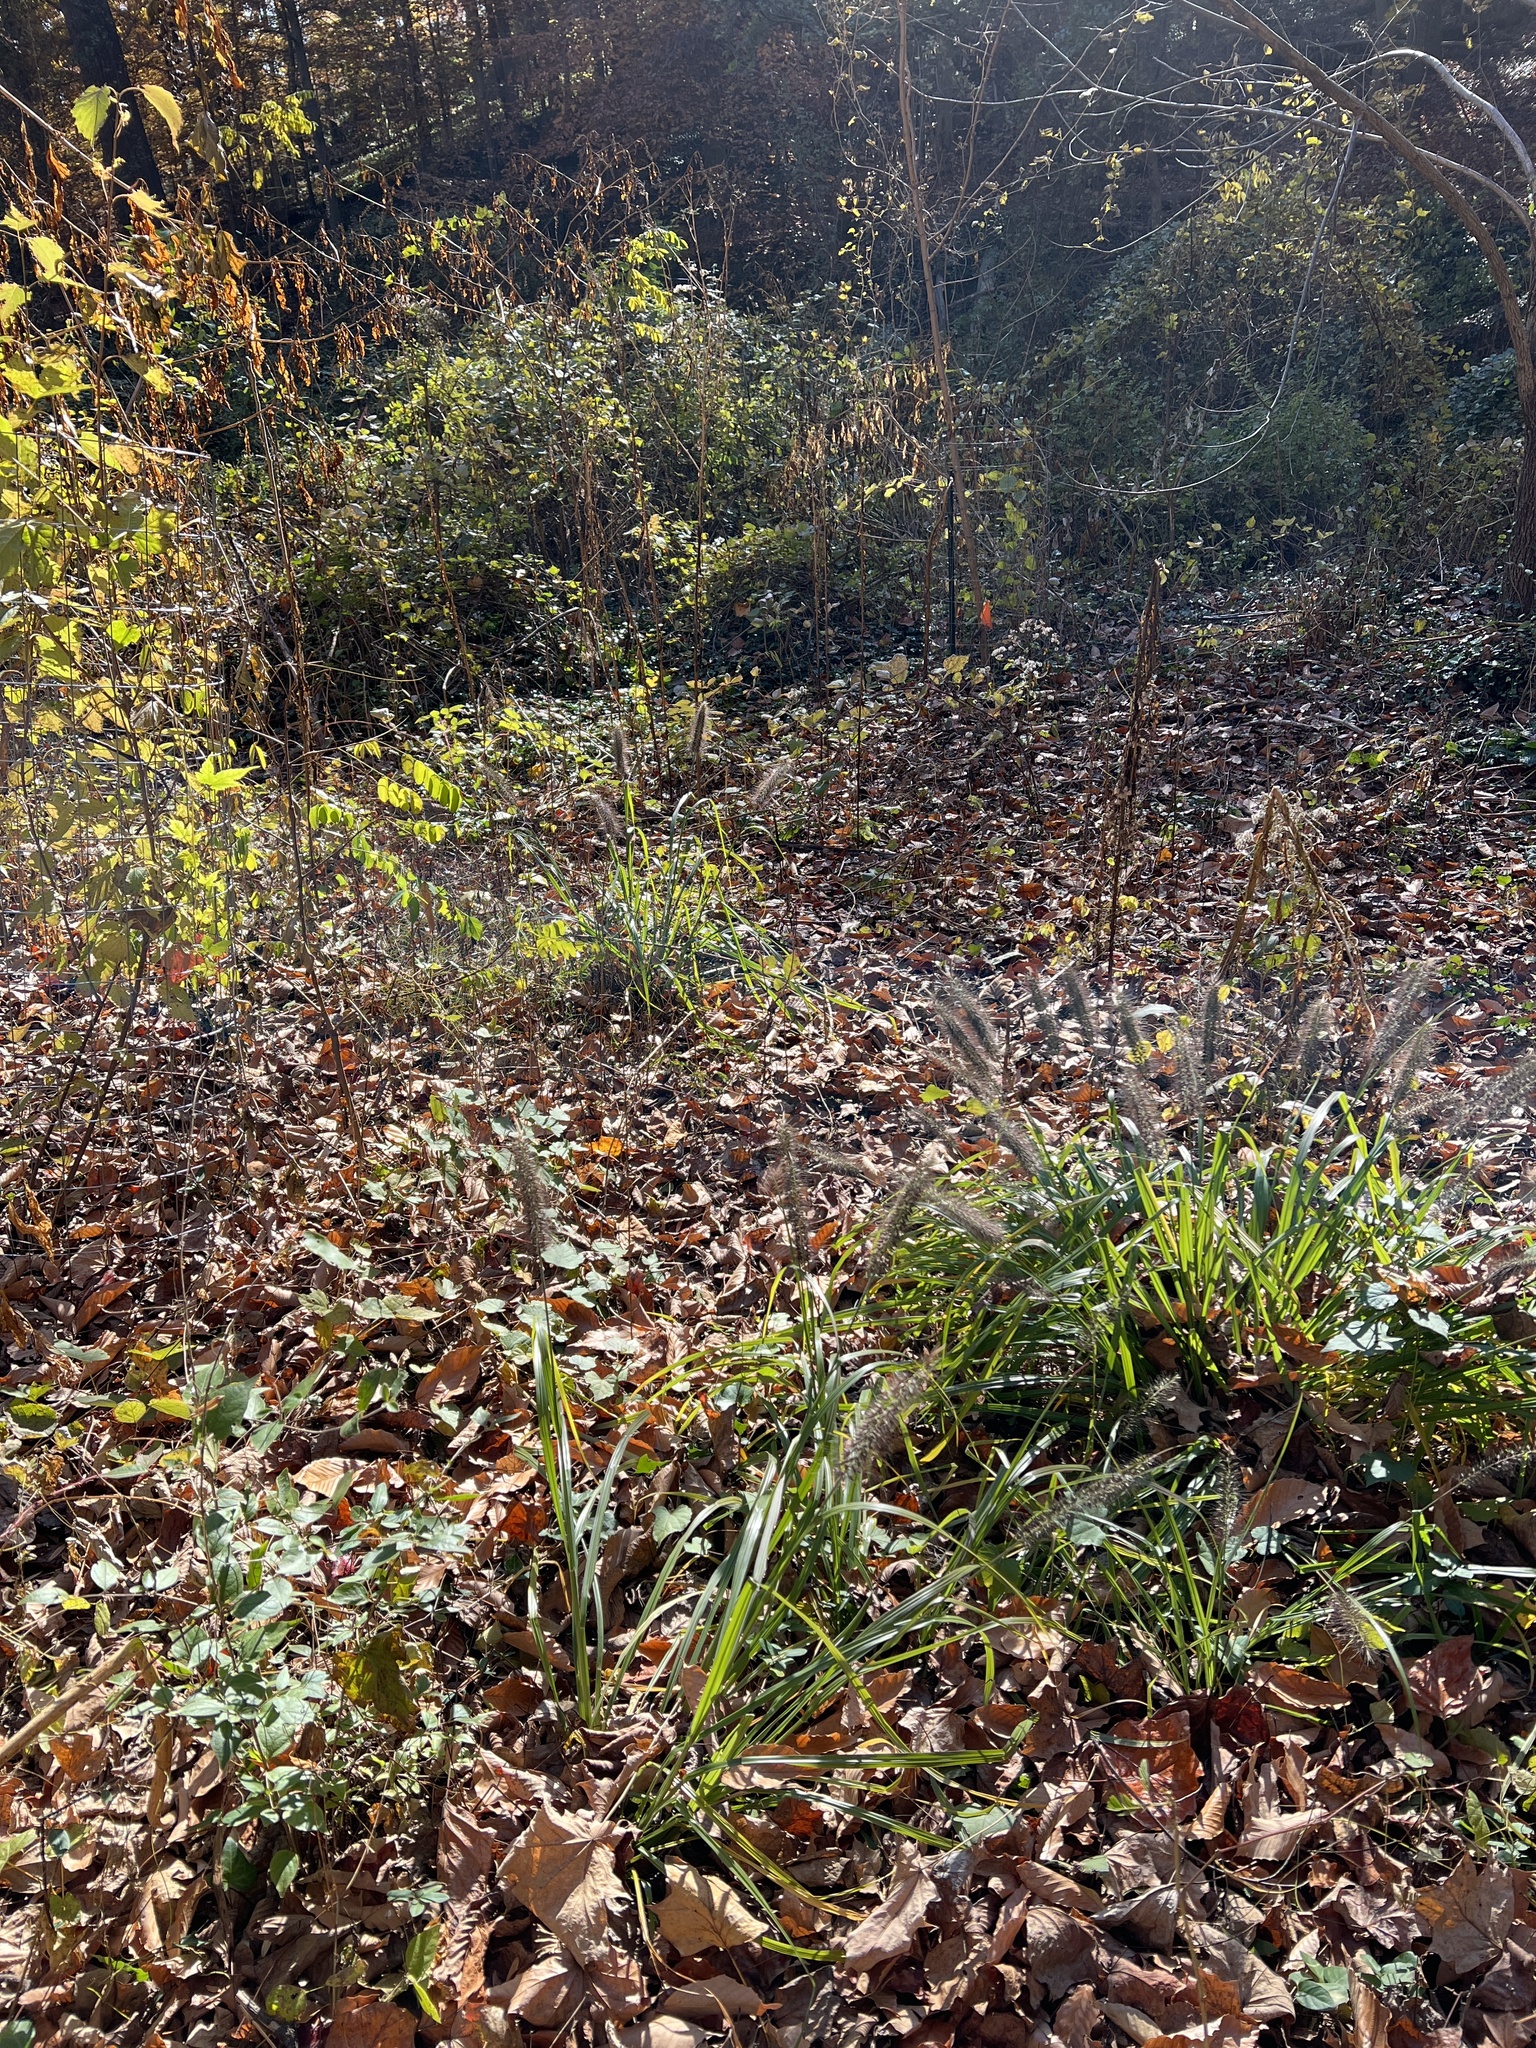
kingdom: Plantae
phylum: Tracheophyta
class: Liliopsida
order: Poales
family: Poaceae
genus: Cenchrus
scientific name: Cenchrus alopecuroides
